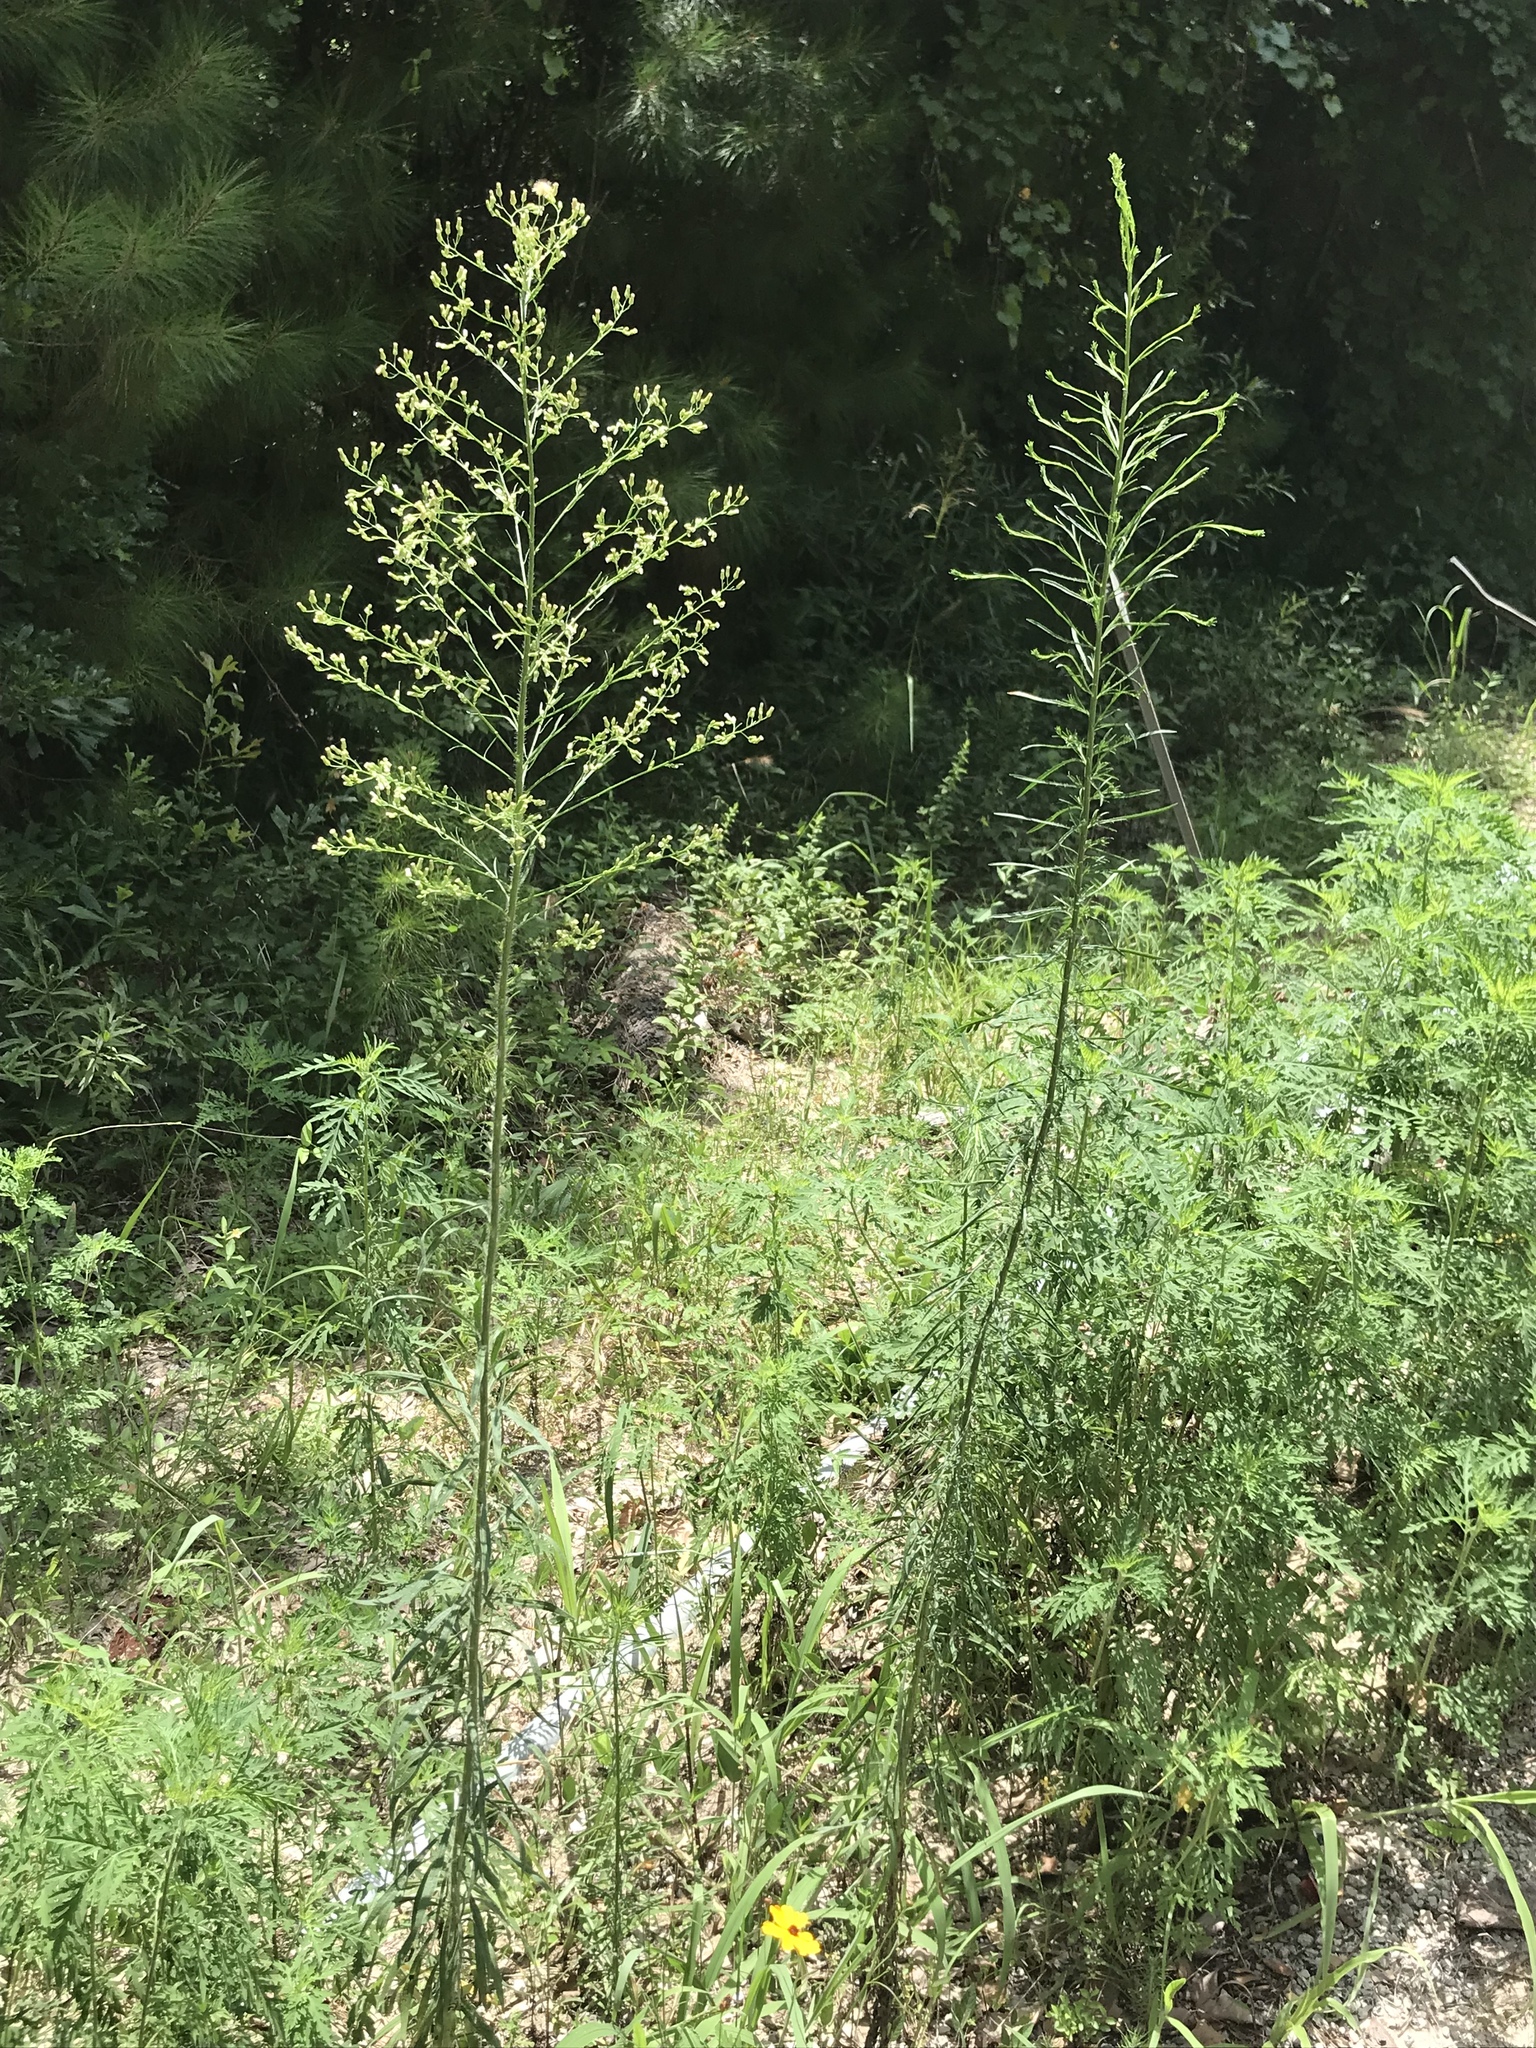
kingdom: Plantae
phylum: Tracheophyta
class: Magnoliopsida
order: Asterales
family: Asteraceae
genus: Erigeron
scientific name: Erigeron canadensis
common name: Canadian fleabane
